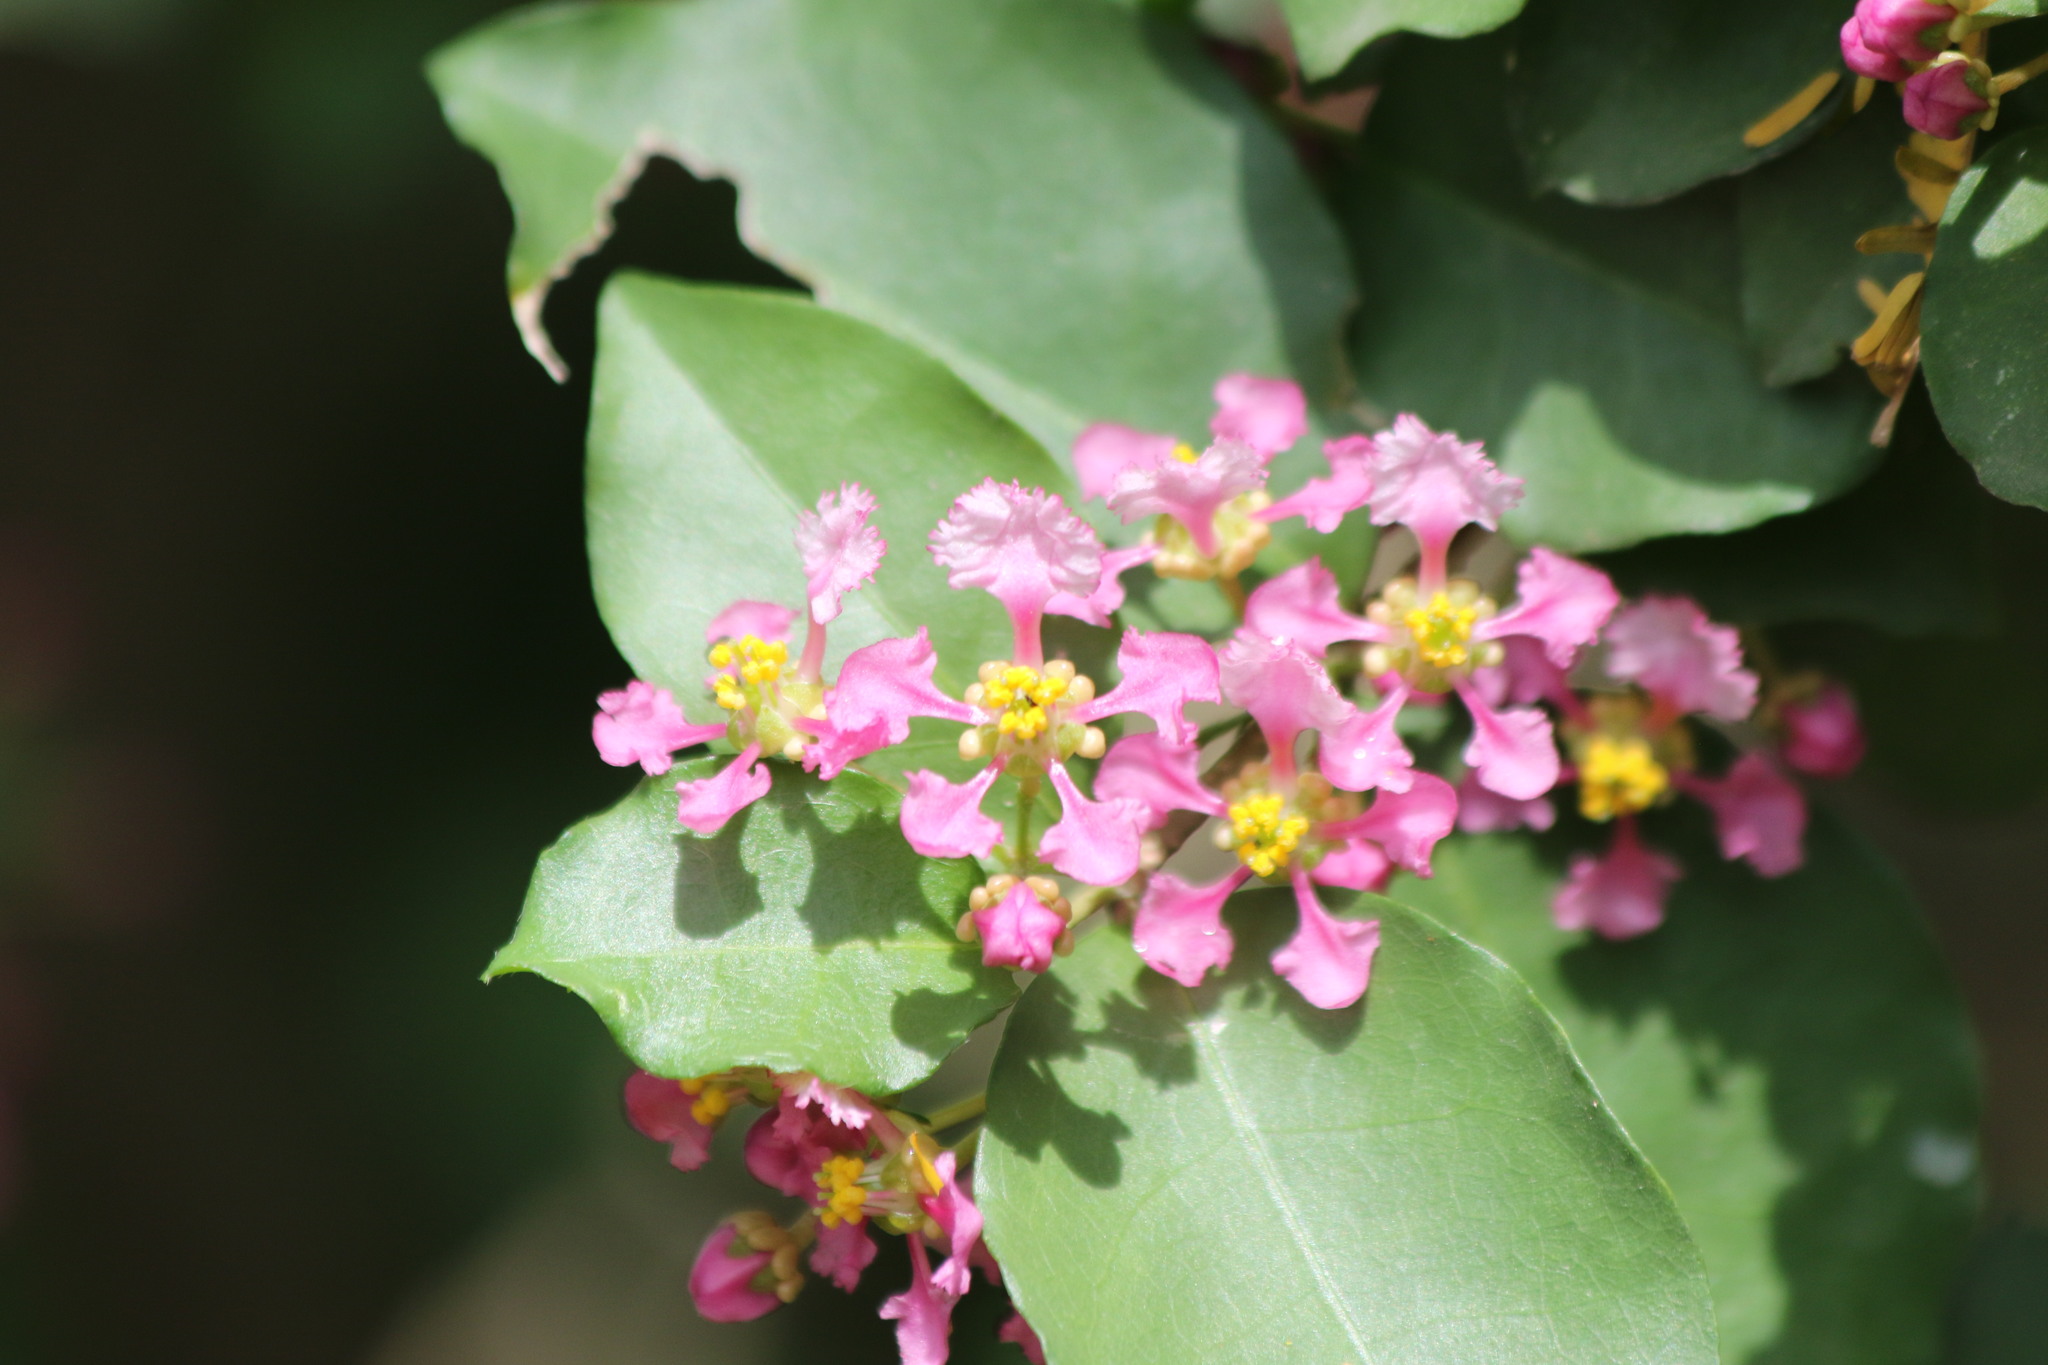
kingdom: Plantae
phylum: Tracheophyta
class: Magnoliopsida
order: Malpighiales
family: Malpighiaceae
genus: Malpighia
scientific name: Malpighia glabra
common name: Barbados cherry
